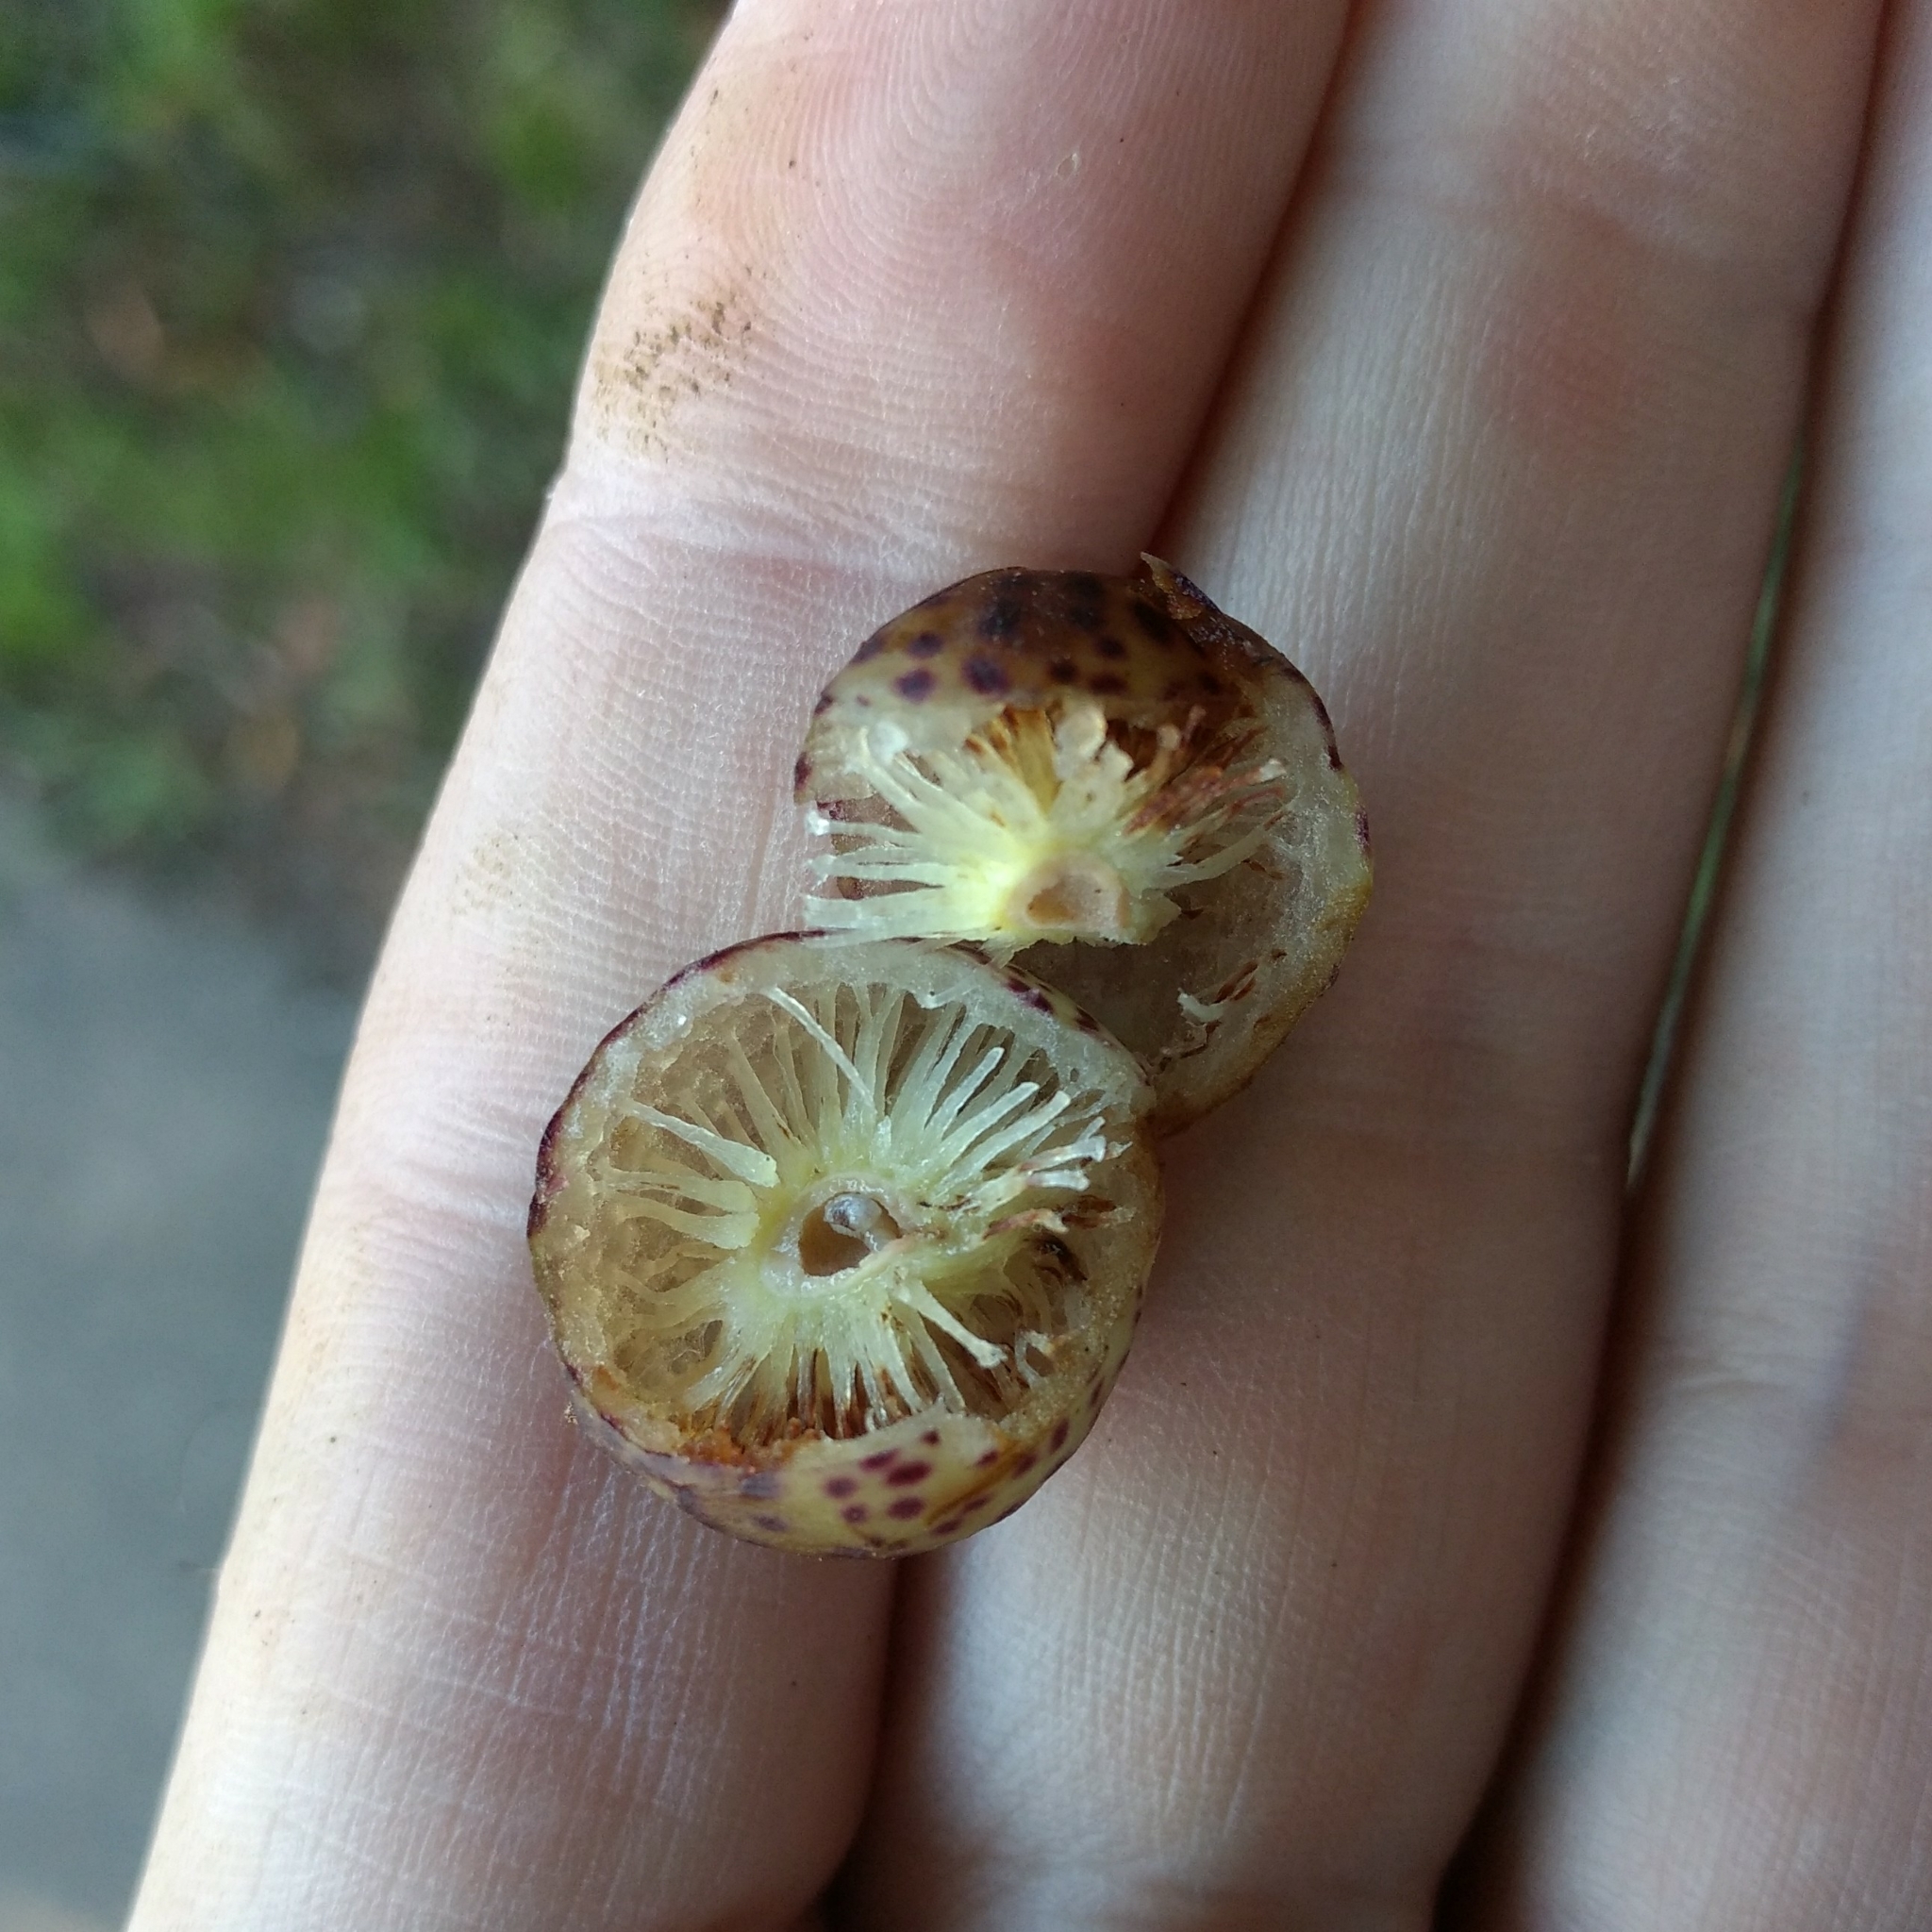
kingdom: Animalia
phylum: Arthropoda
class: Insecta
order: Hymenoptera
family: Cynipidae
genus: Amphibolips
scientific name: Amphibolips
